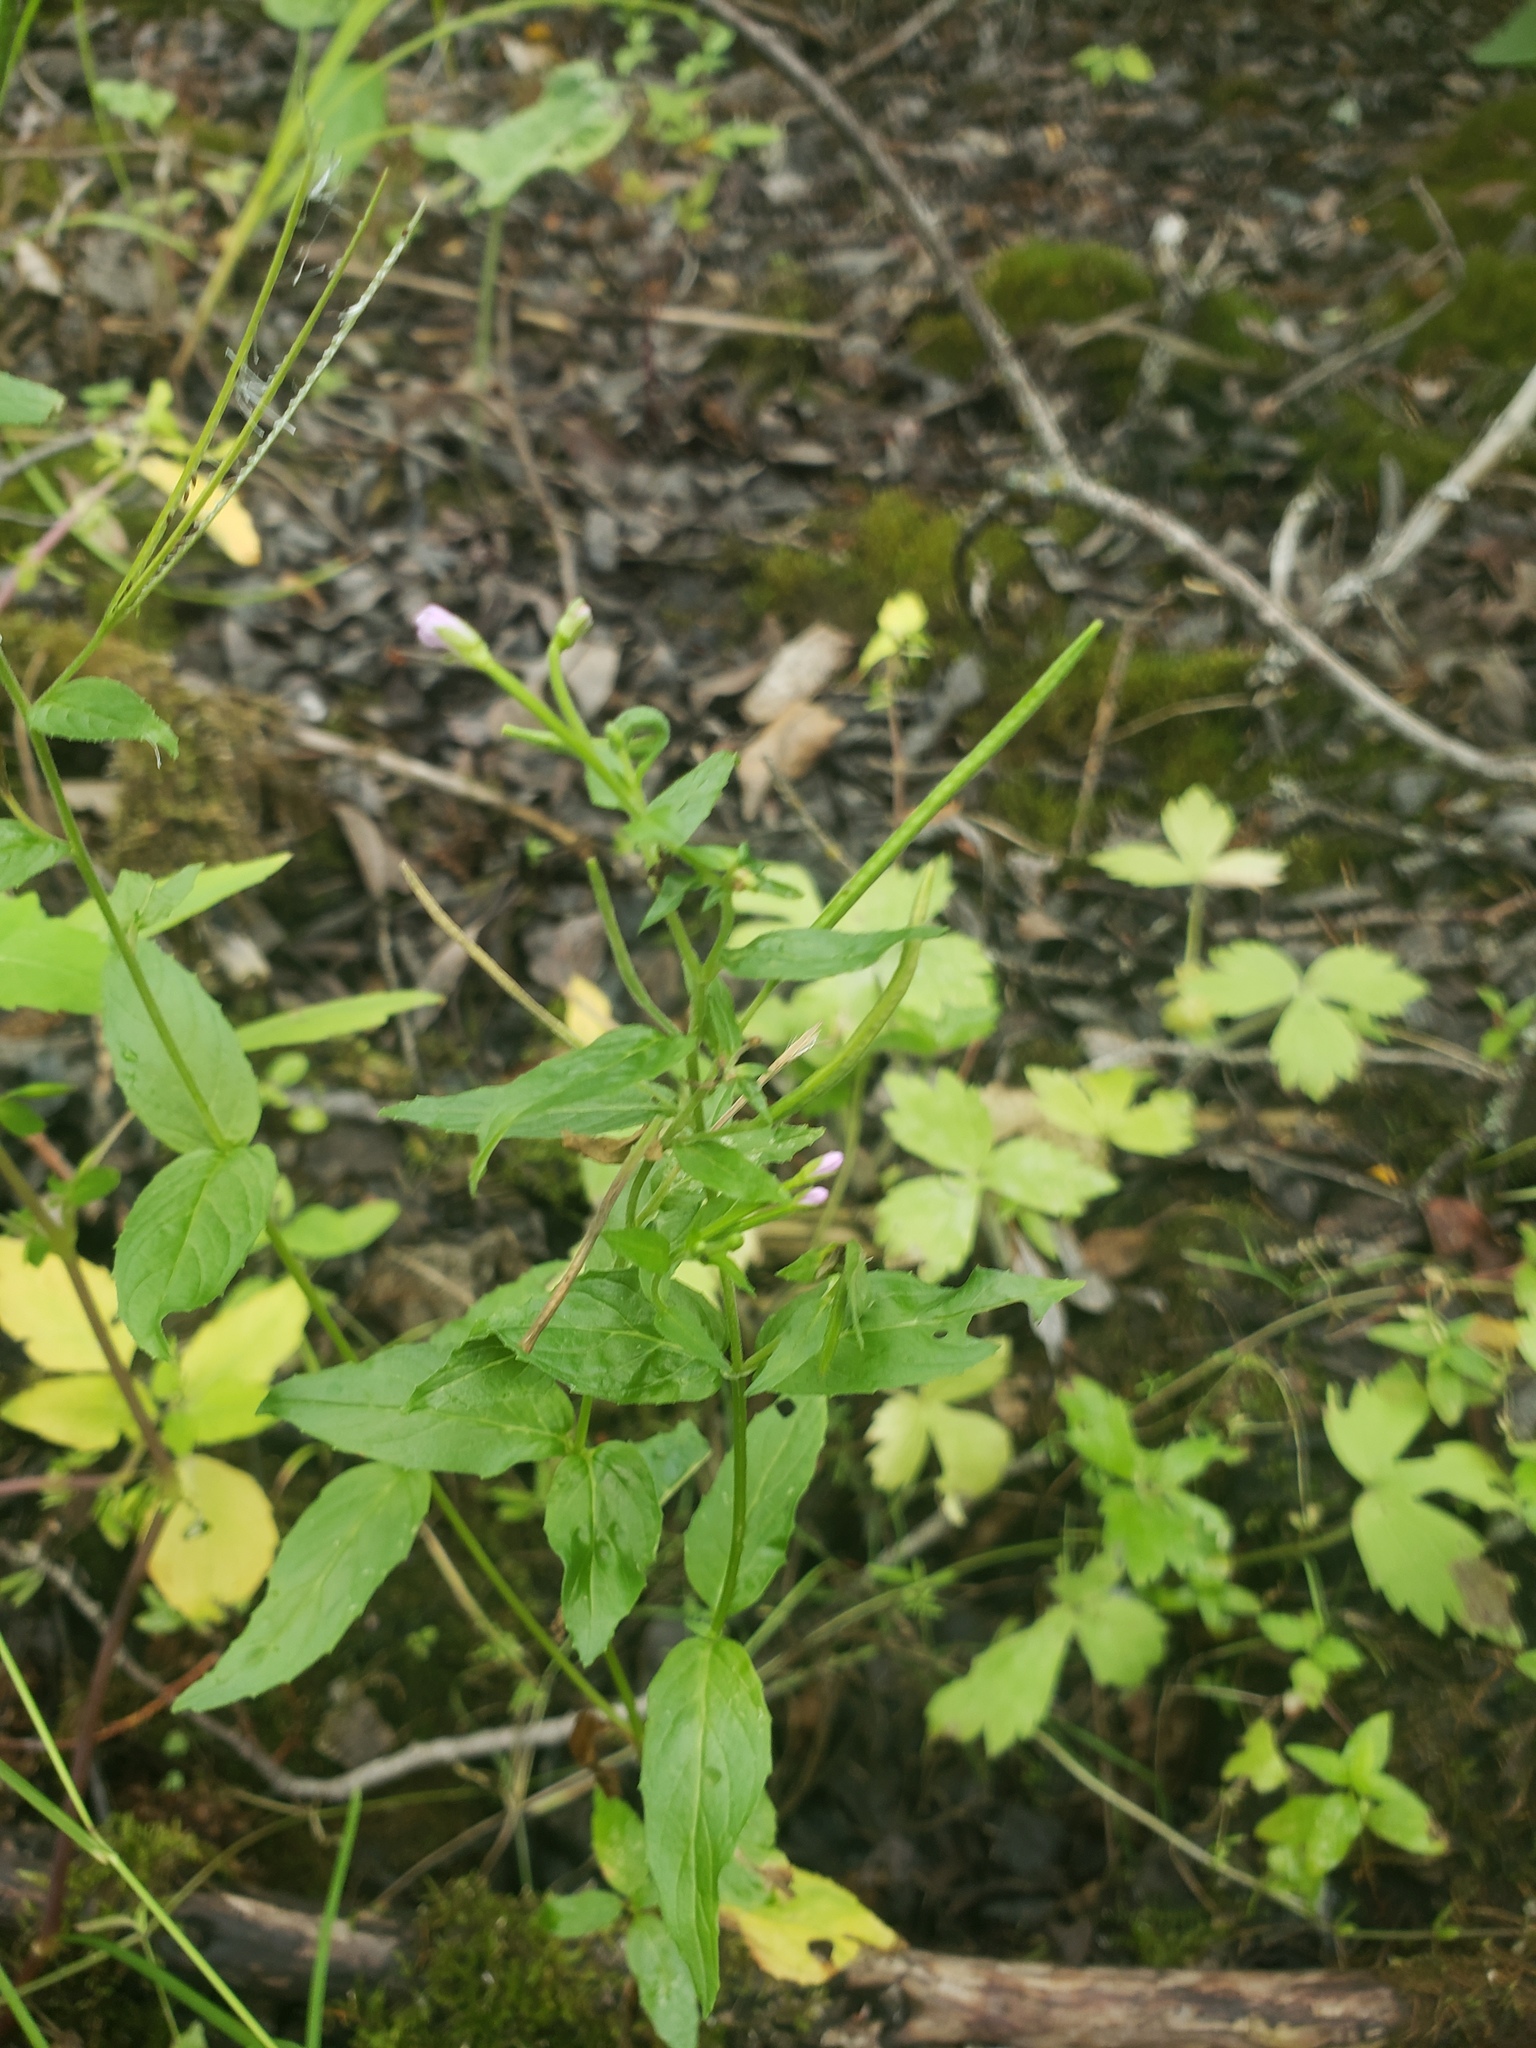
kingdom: Plantae
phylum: Tracheophyta
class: Magnoliopsida
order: Myrtales
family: Onagraceae
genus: Epilobium
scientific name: Epilobium ciliatum
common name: American willowherb
